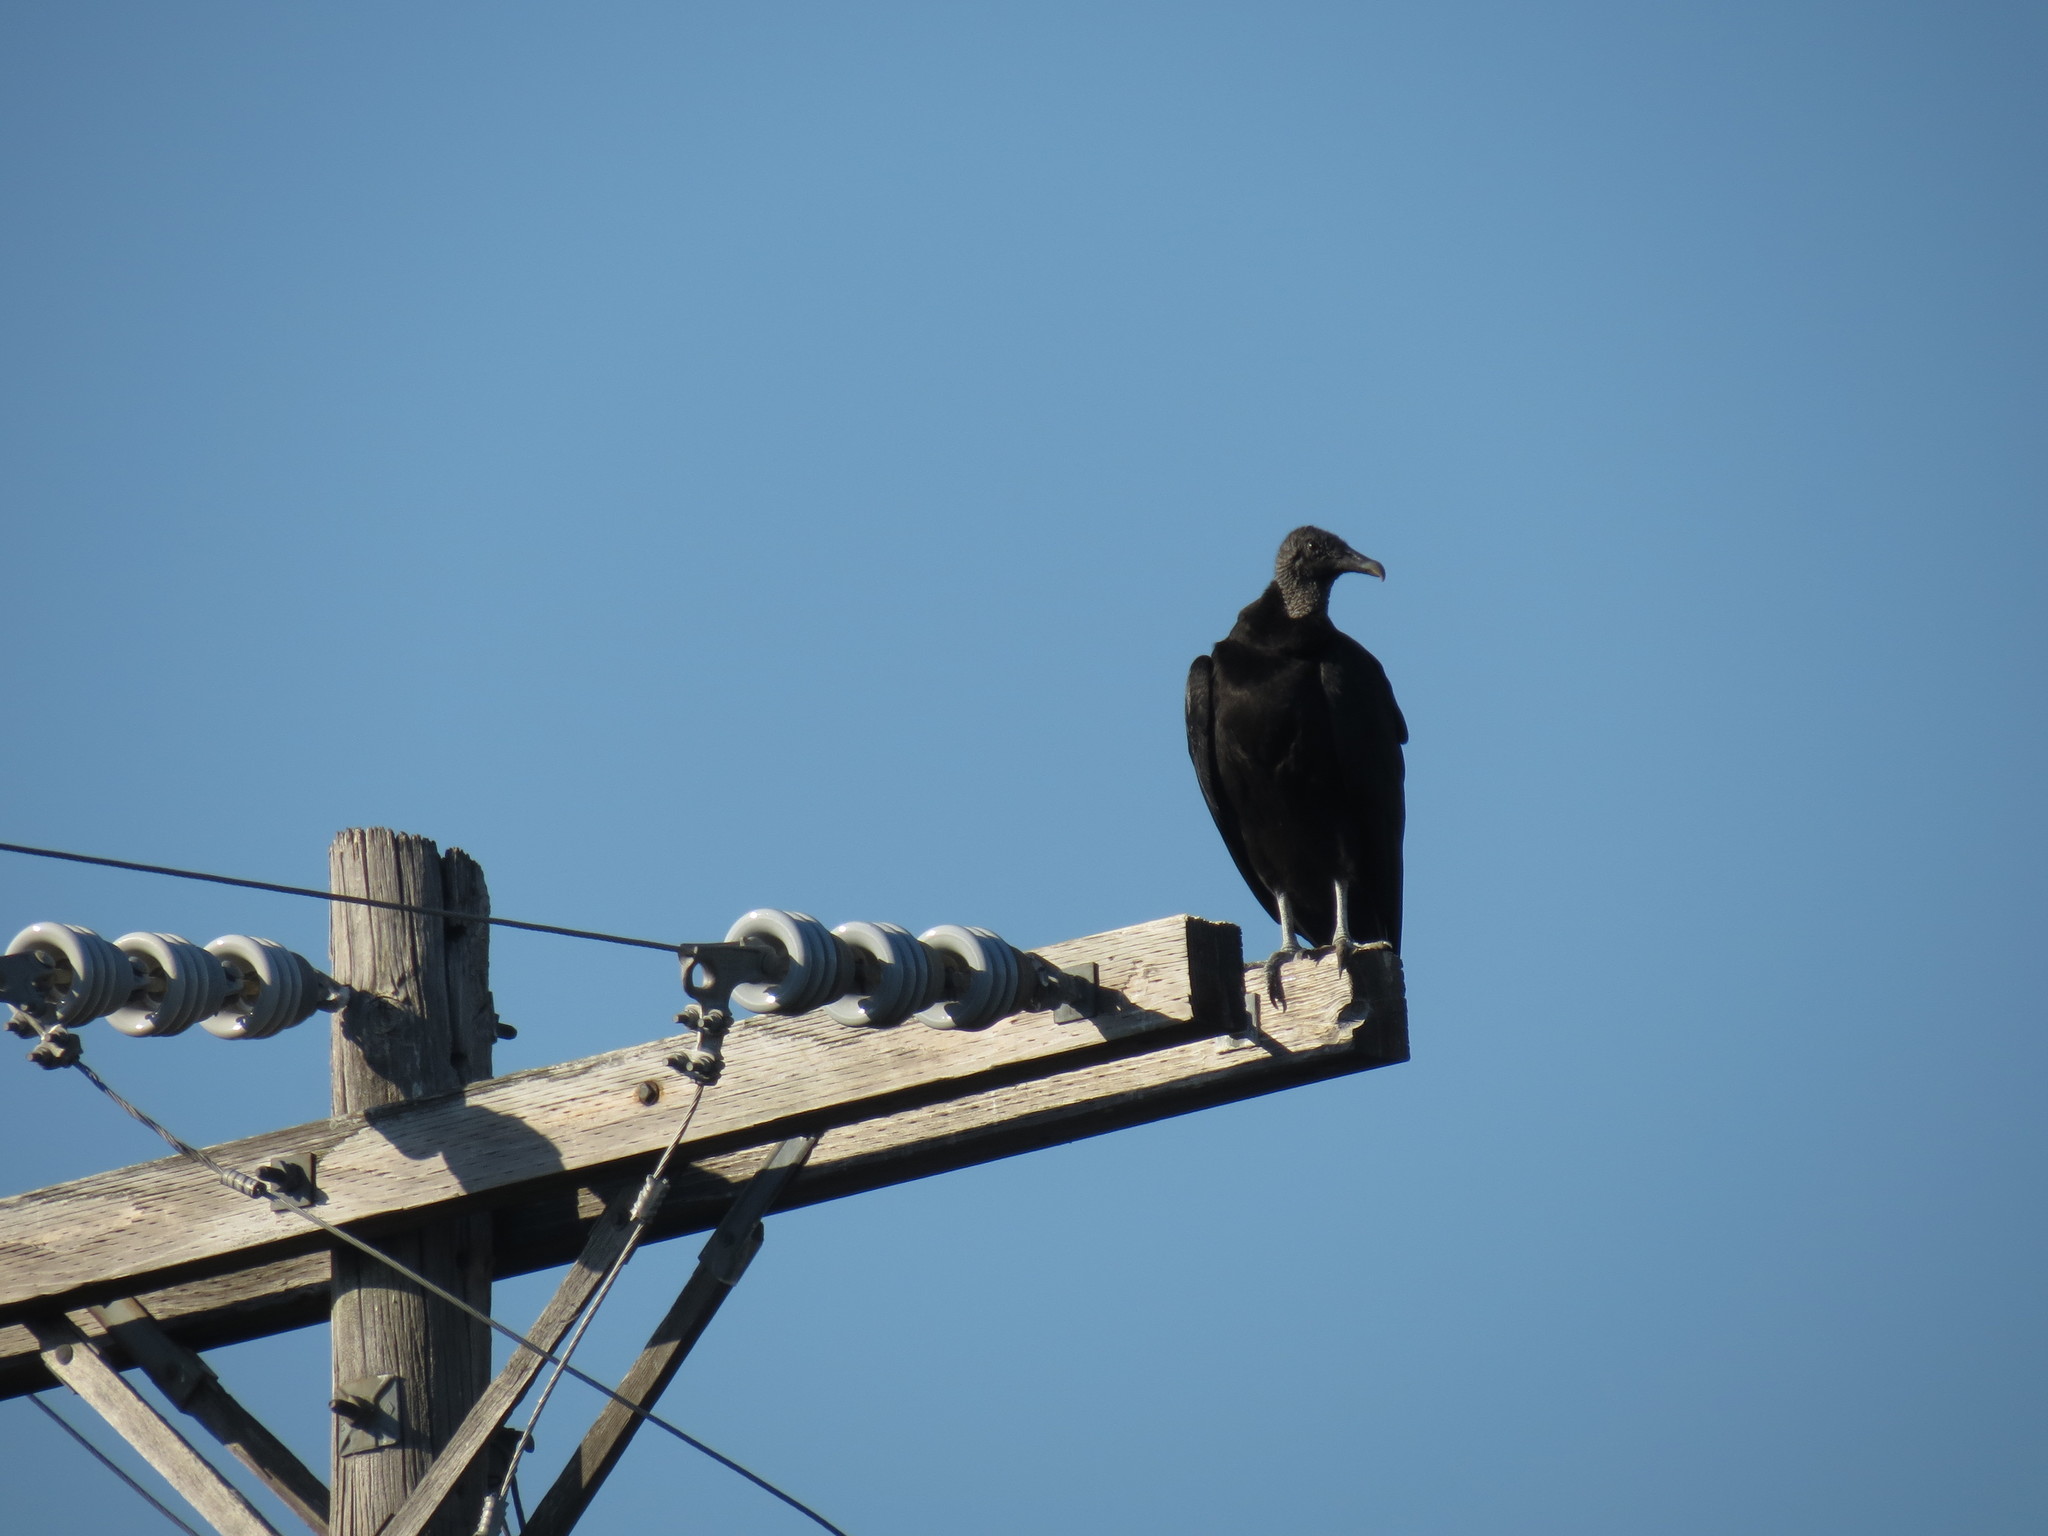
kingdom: Animalia
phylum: Chordata
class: Aves
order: Accipitriformes
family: Cathartidae
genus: Coragyps
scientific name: Coragyps atratus
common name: Black vulture
